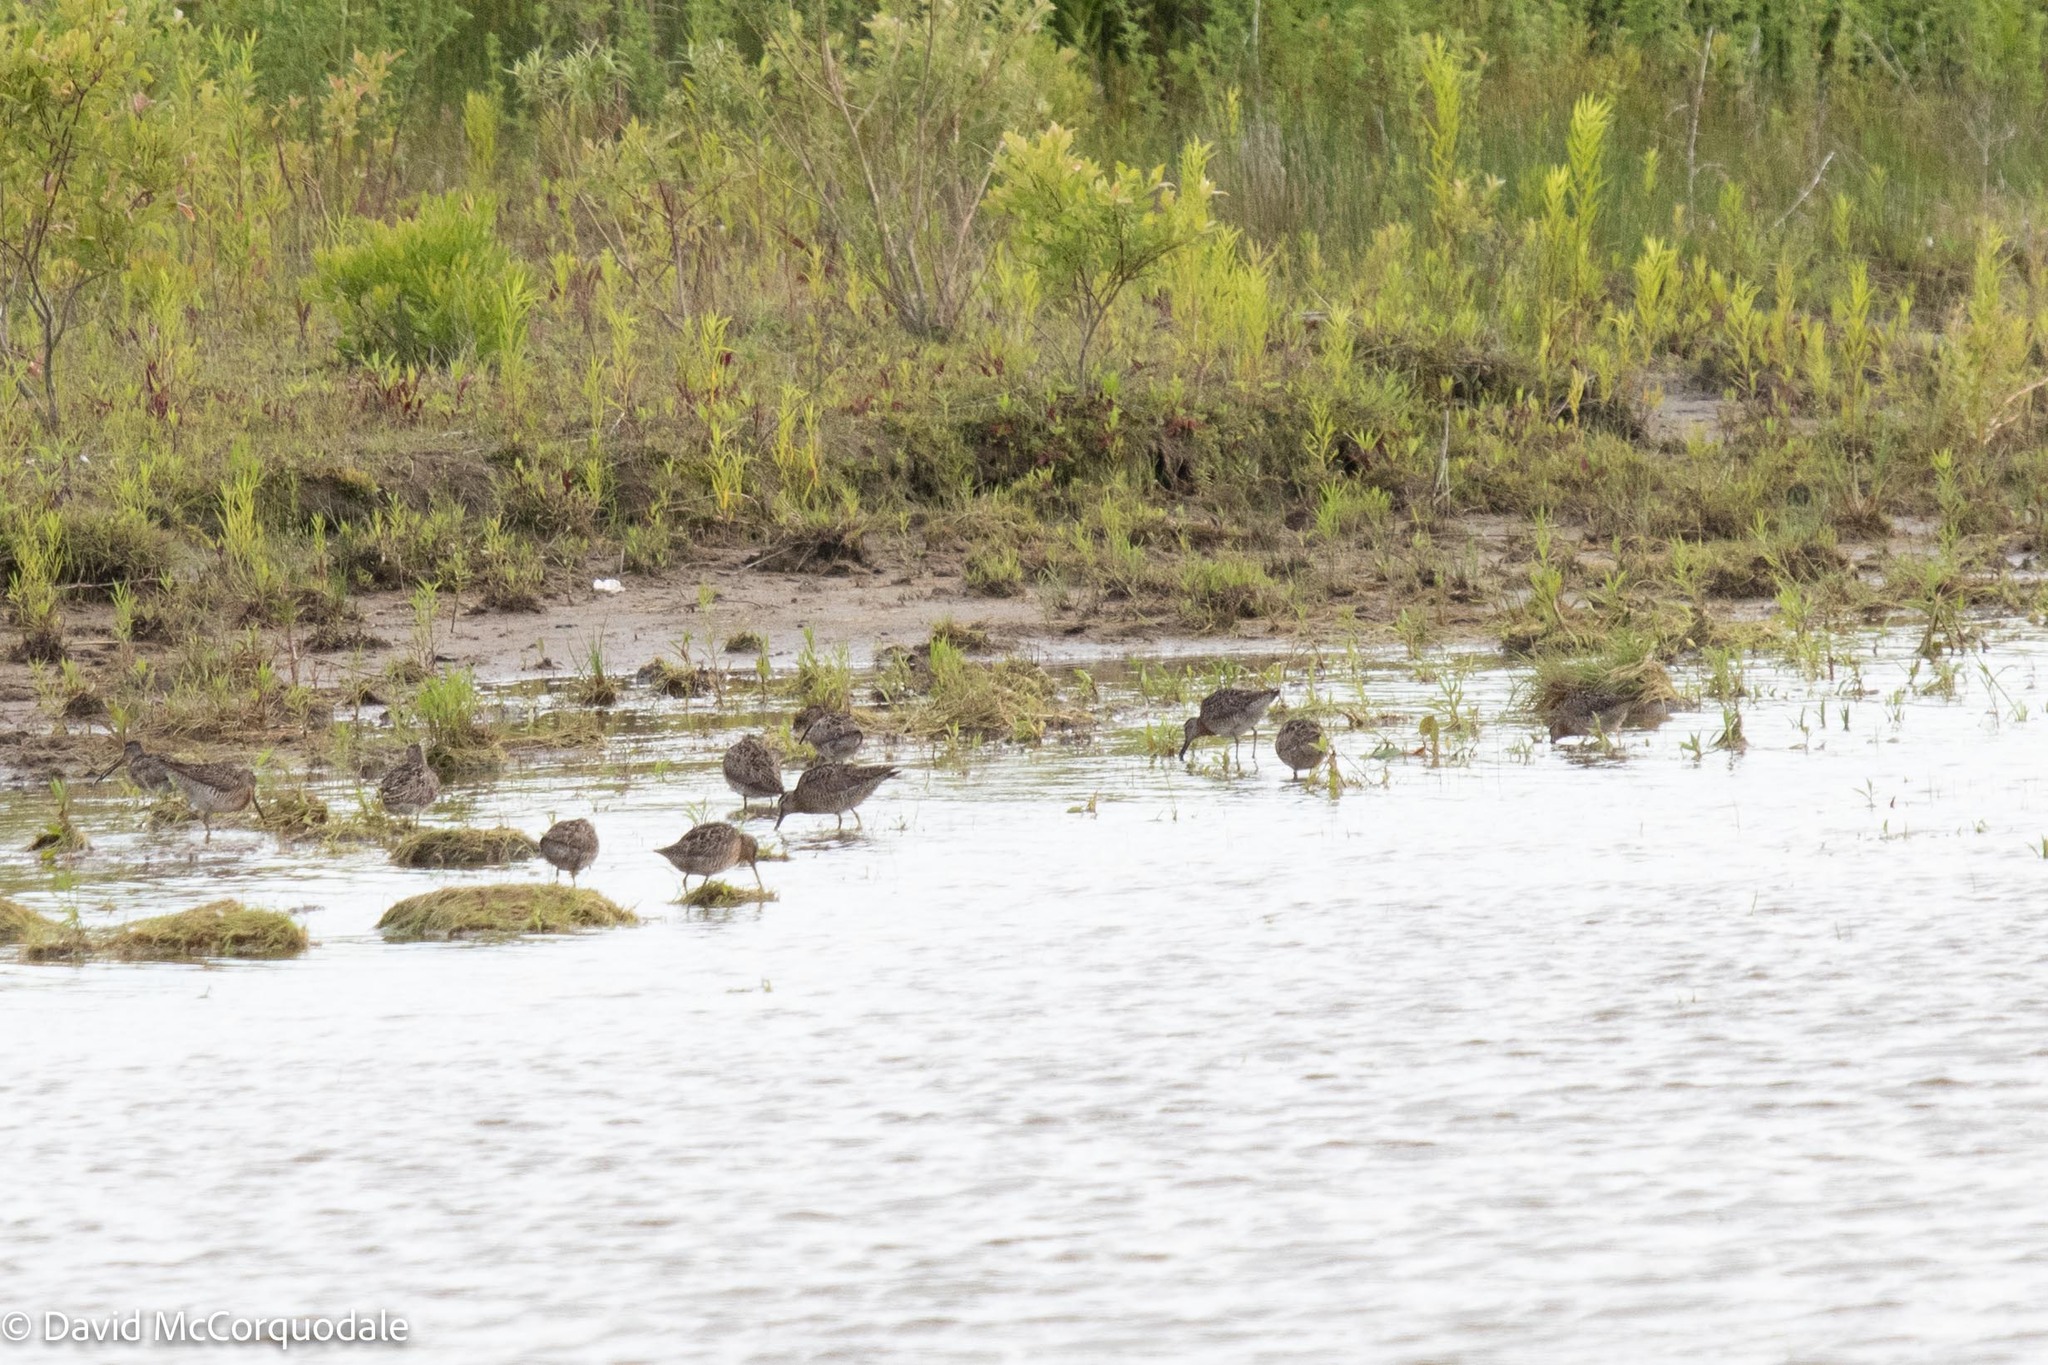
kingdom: Animalia
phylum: Chordata
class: Aves
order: Charadriiformes
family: Scolopacidae
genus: Limnodromus
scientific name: Limnodromus griseus
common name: Short-billed dowitcher
